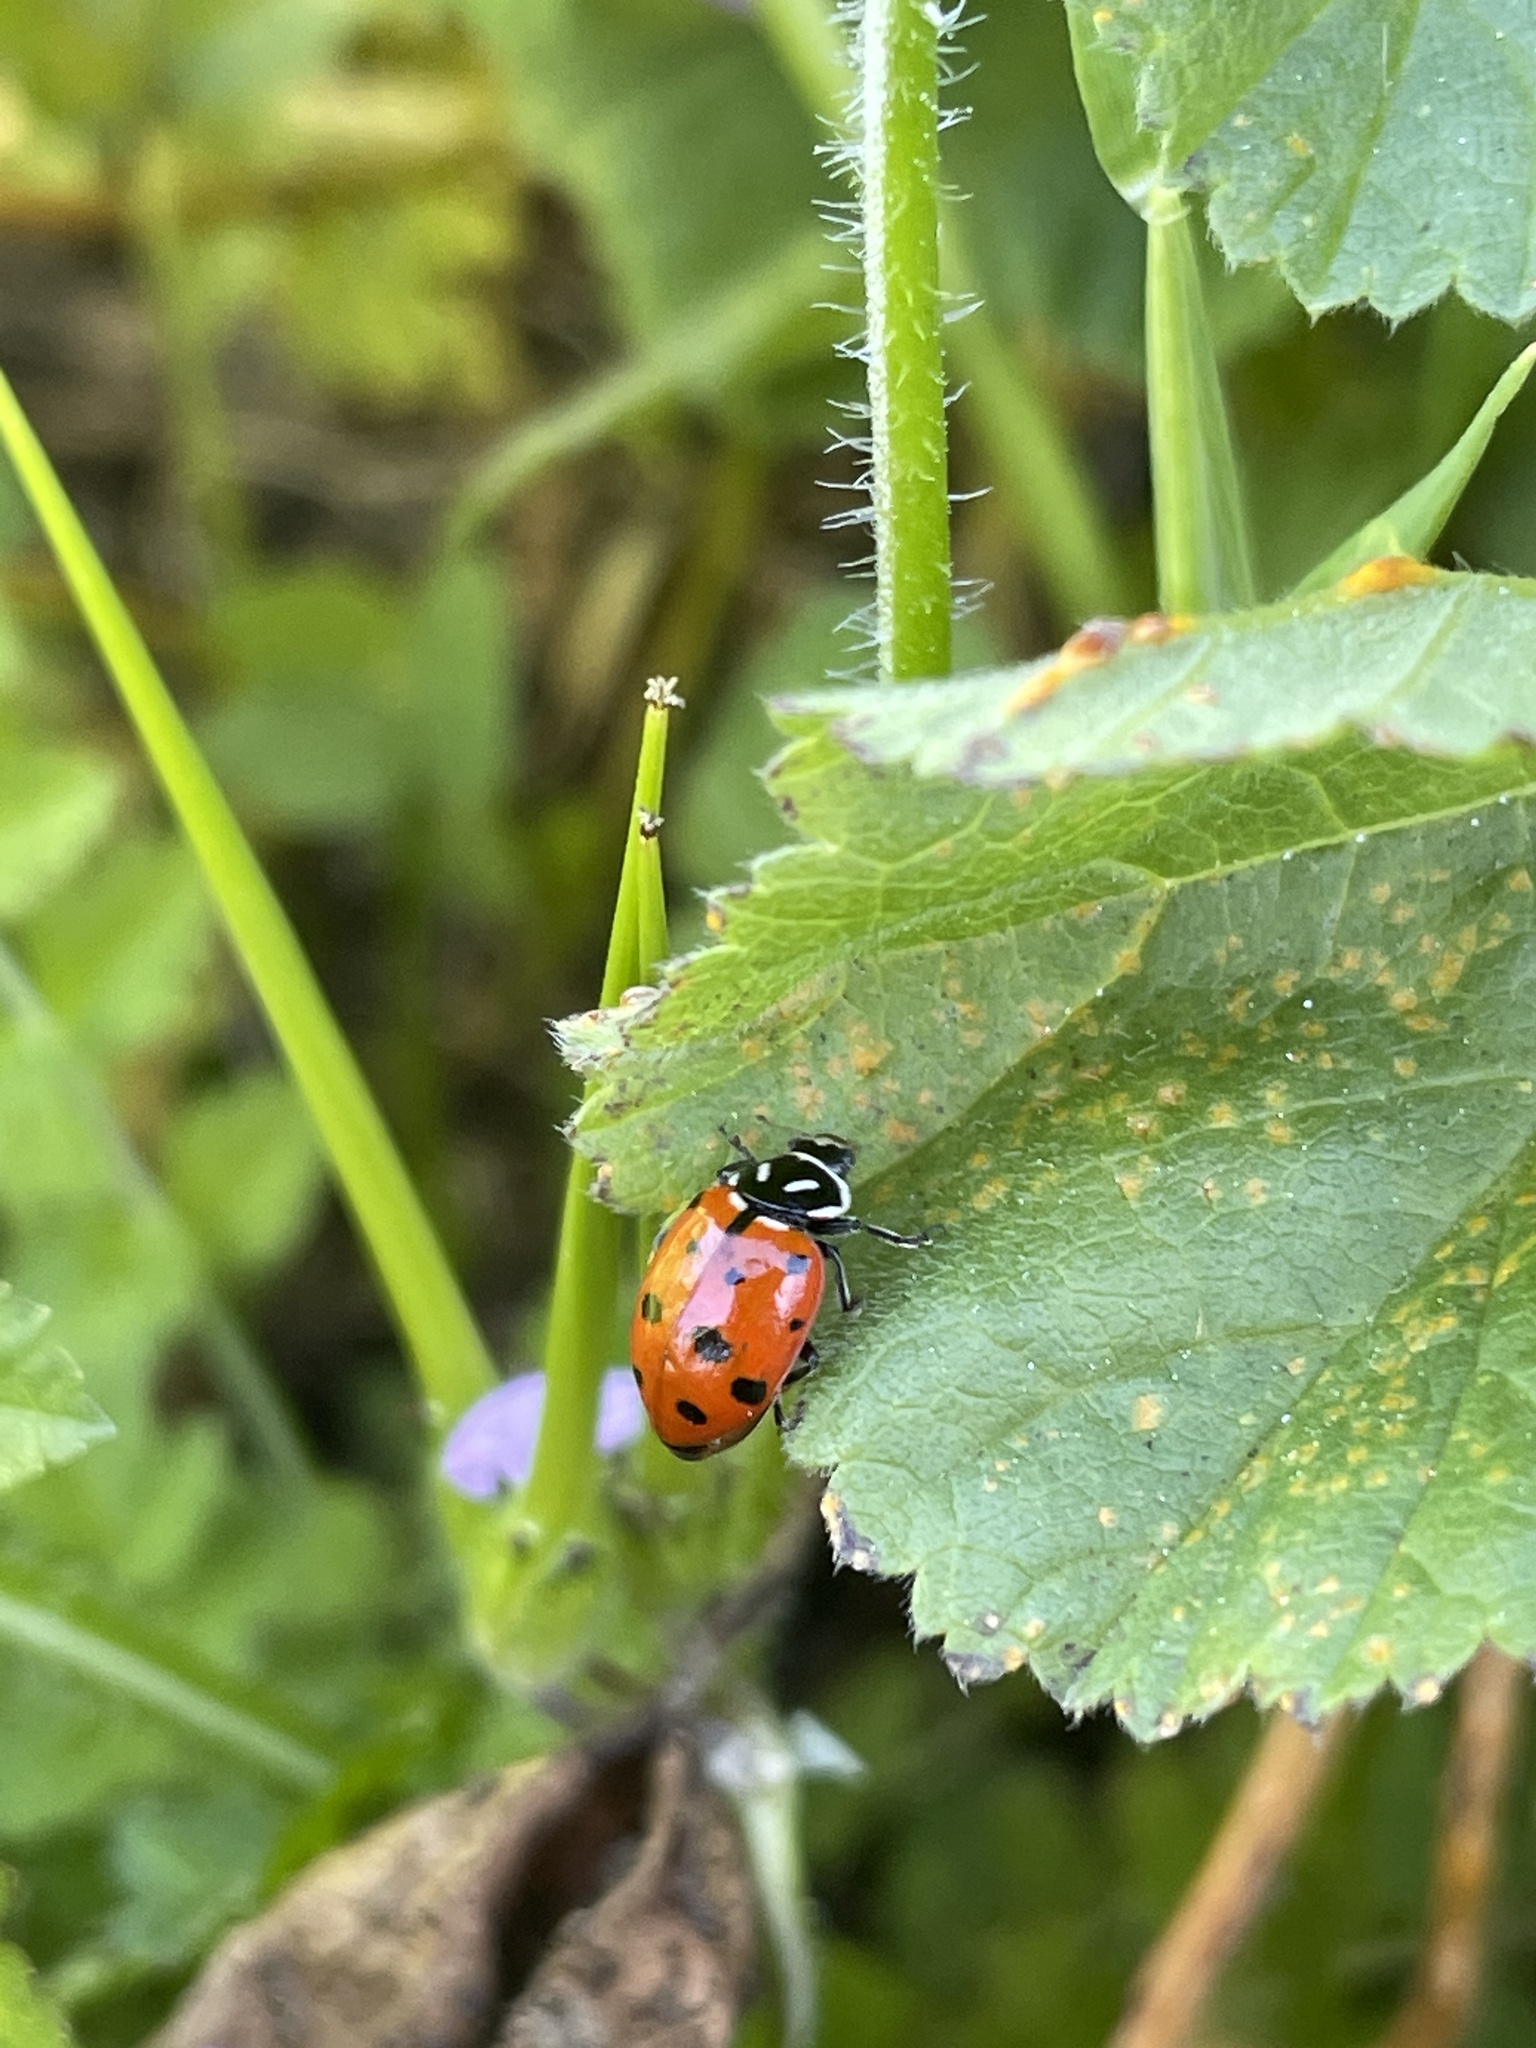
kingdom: Animalia
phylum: Arthropoda
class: Insecta
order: Coleoptera
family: Coccinellidae
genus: Hippodamia
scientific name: Hippodamia convergens
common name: Convergent lady beetle
